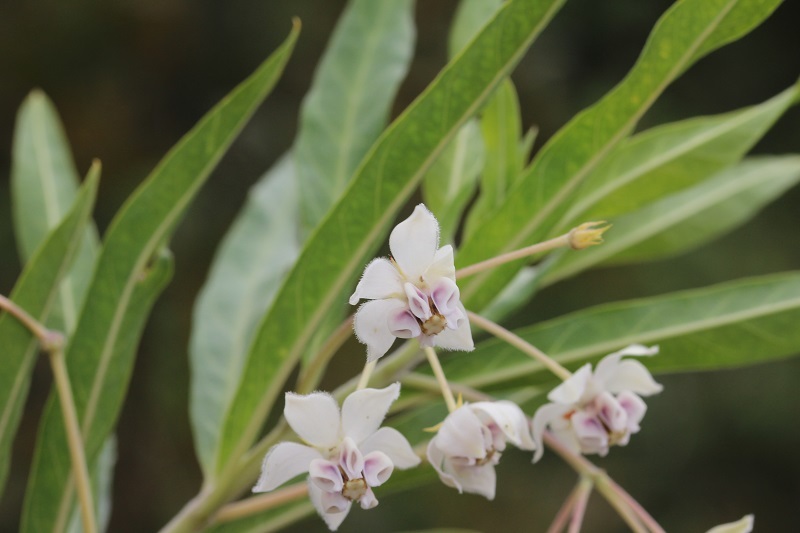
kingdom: Plantae
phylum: Tracheophyta
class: Magnoliopsida
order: Gentianales
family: Apocynaceae
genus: Gomphocarpus
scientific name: Gomphocarpus physocarpus
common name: Balloon cotton bush
